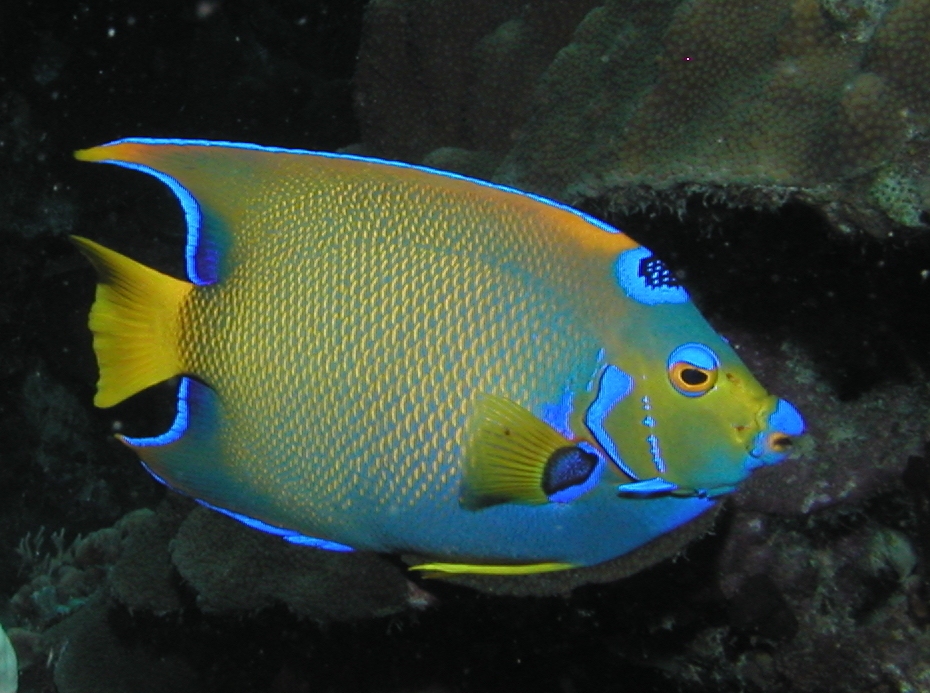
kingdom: Animalia
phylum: Chordata
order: Perciformes
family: Pomacanthidae
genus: Holacanthus
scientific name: Holacanthus ciliaris
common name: Queen angelfish
